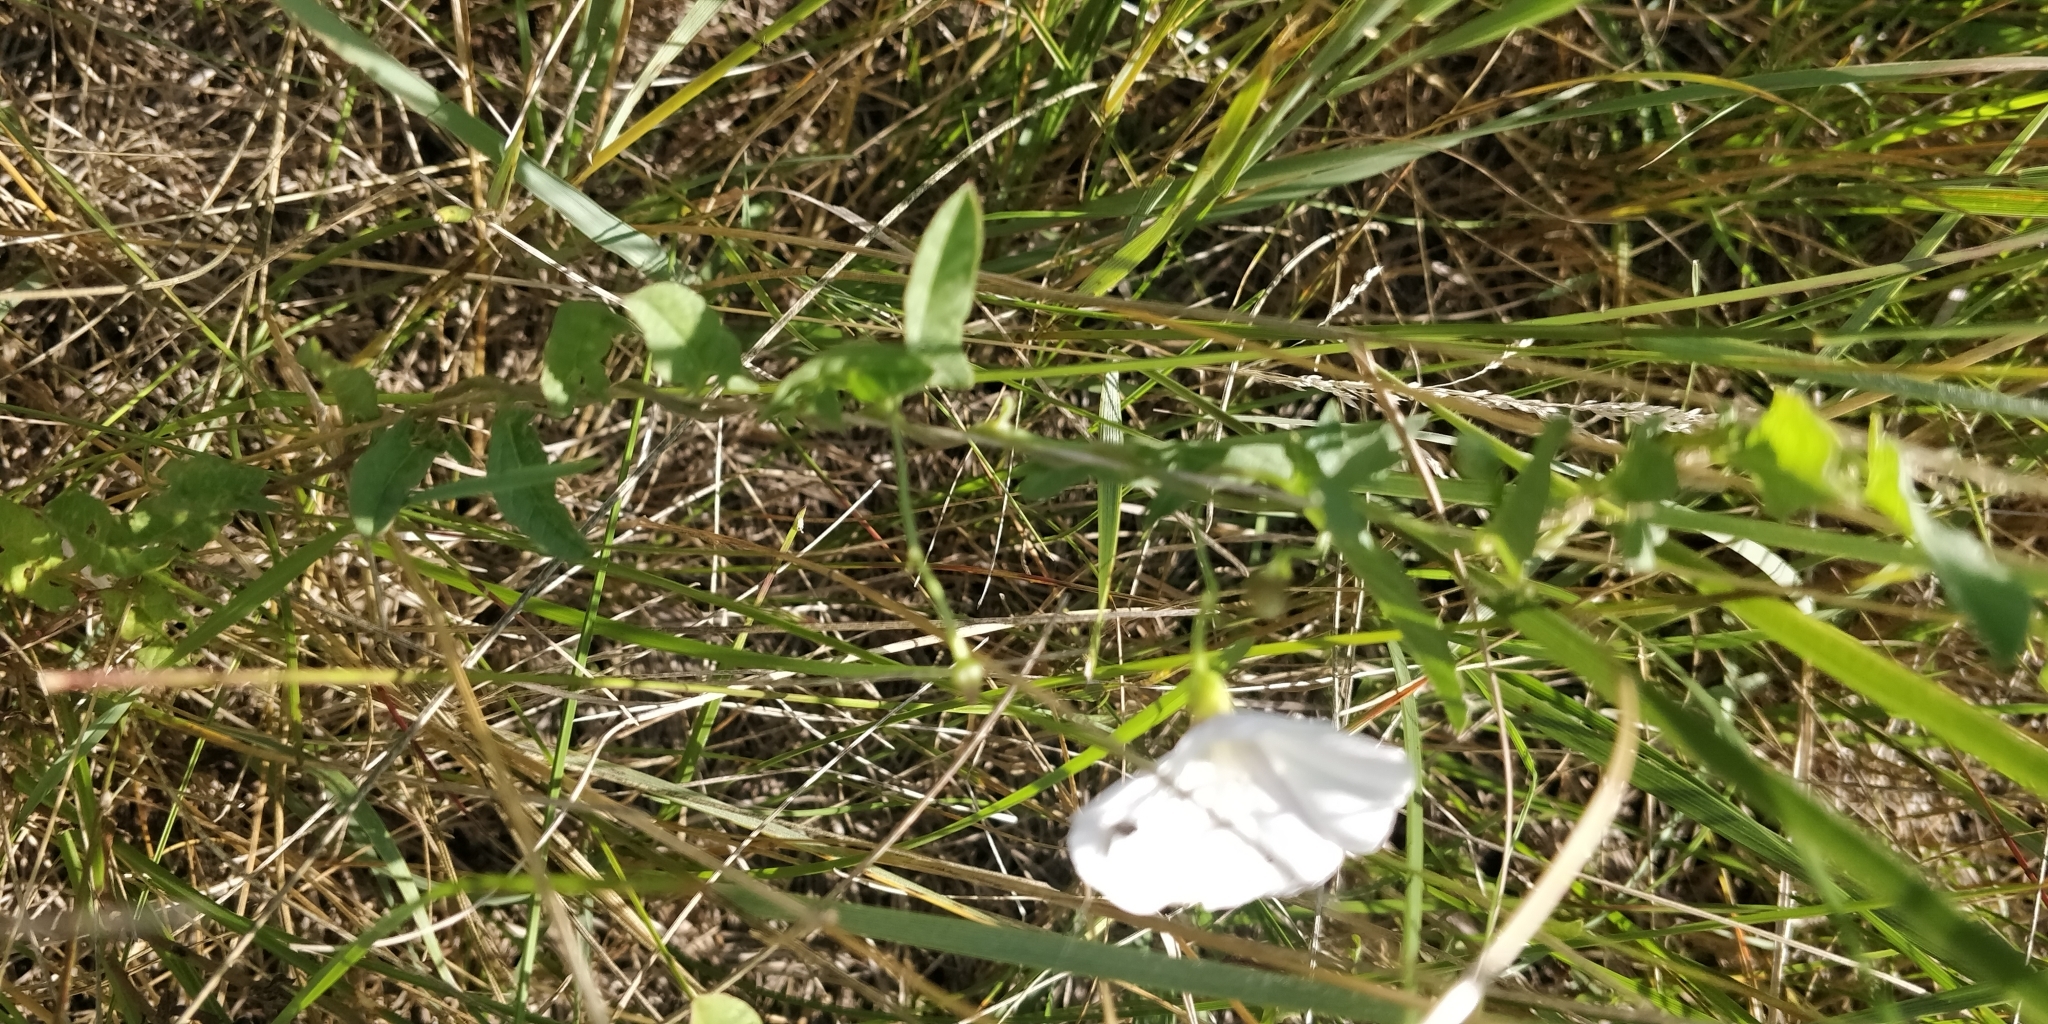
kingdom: Plantae
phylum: Tracheophyta
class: Magnoliopsida
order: Solanales
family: Convolvulaceae
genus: Convolvulus
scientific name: Convolvulus arvensis
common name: Field bindweed
